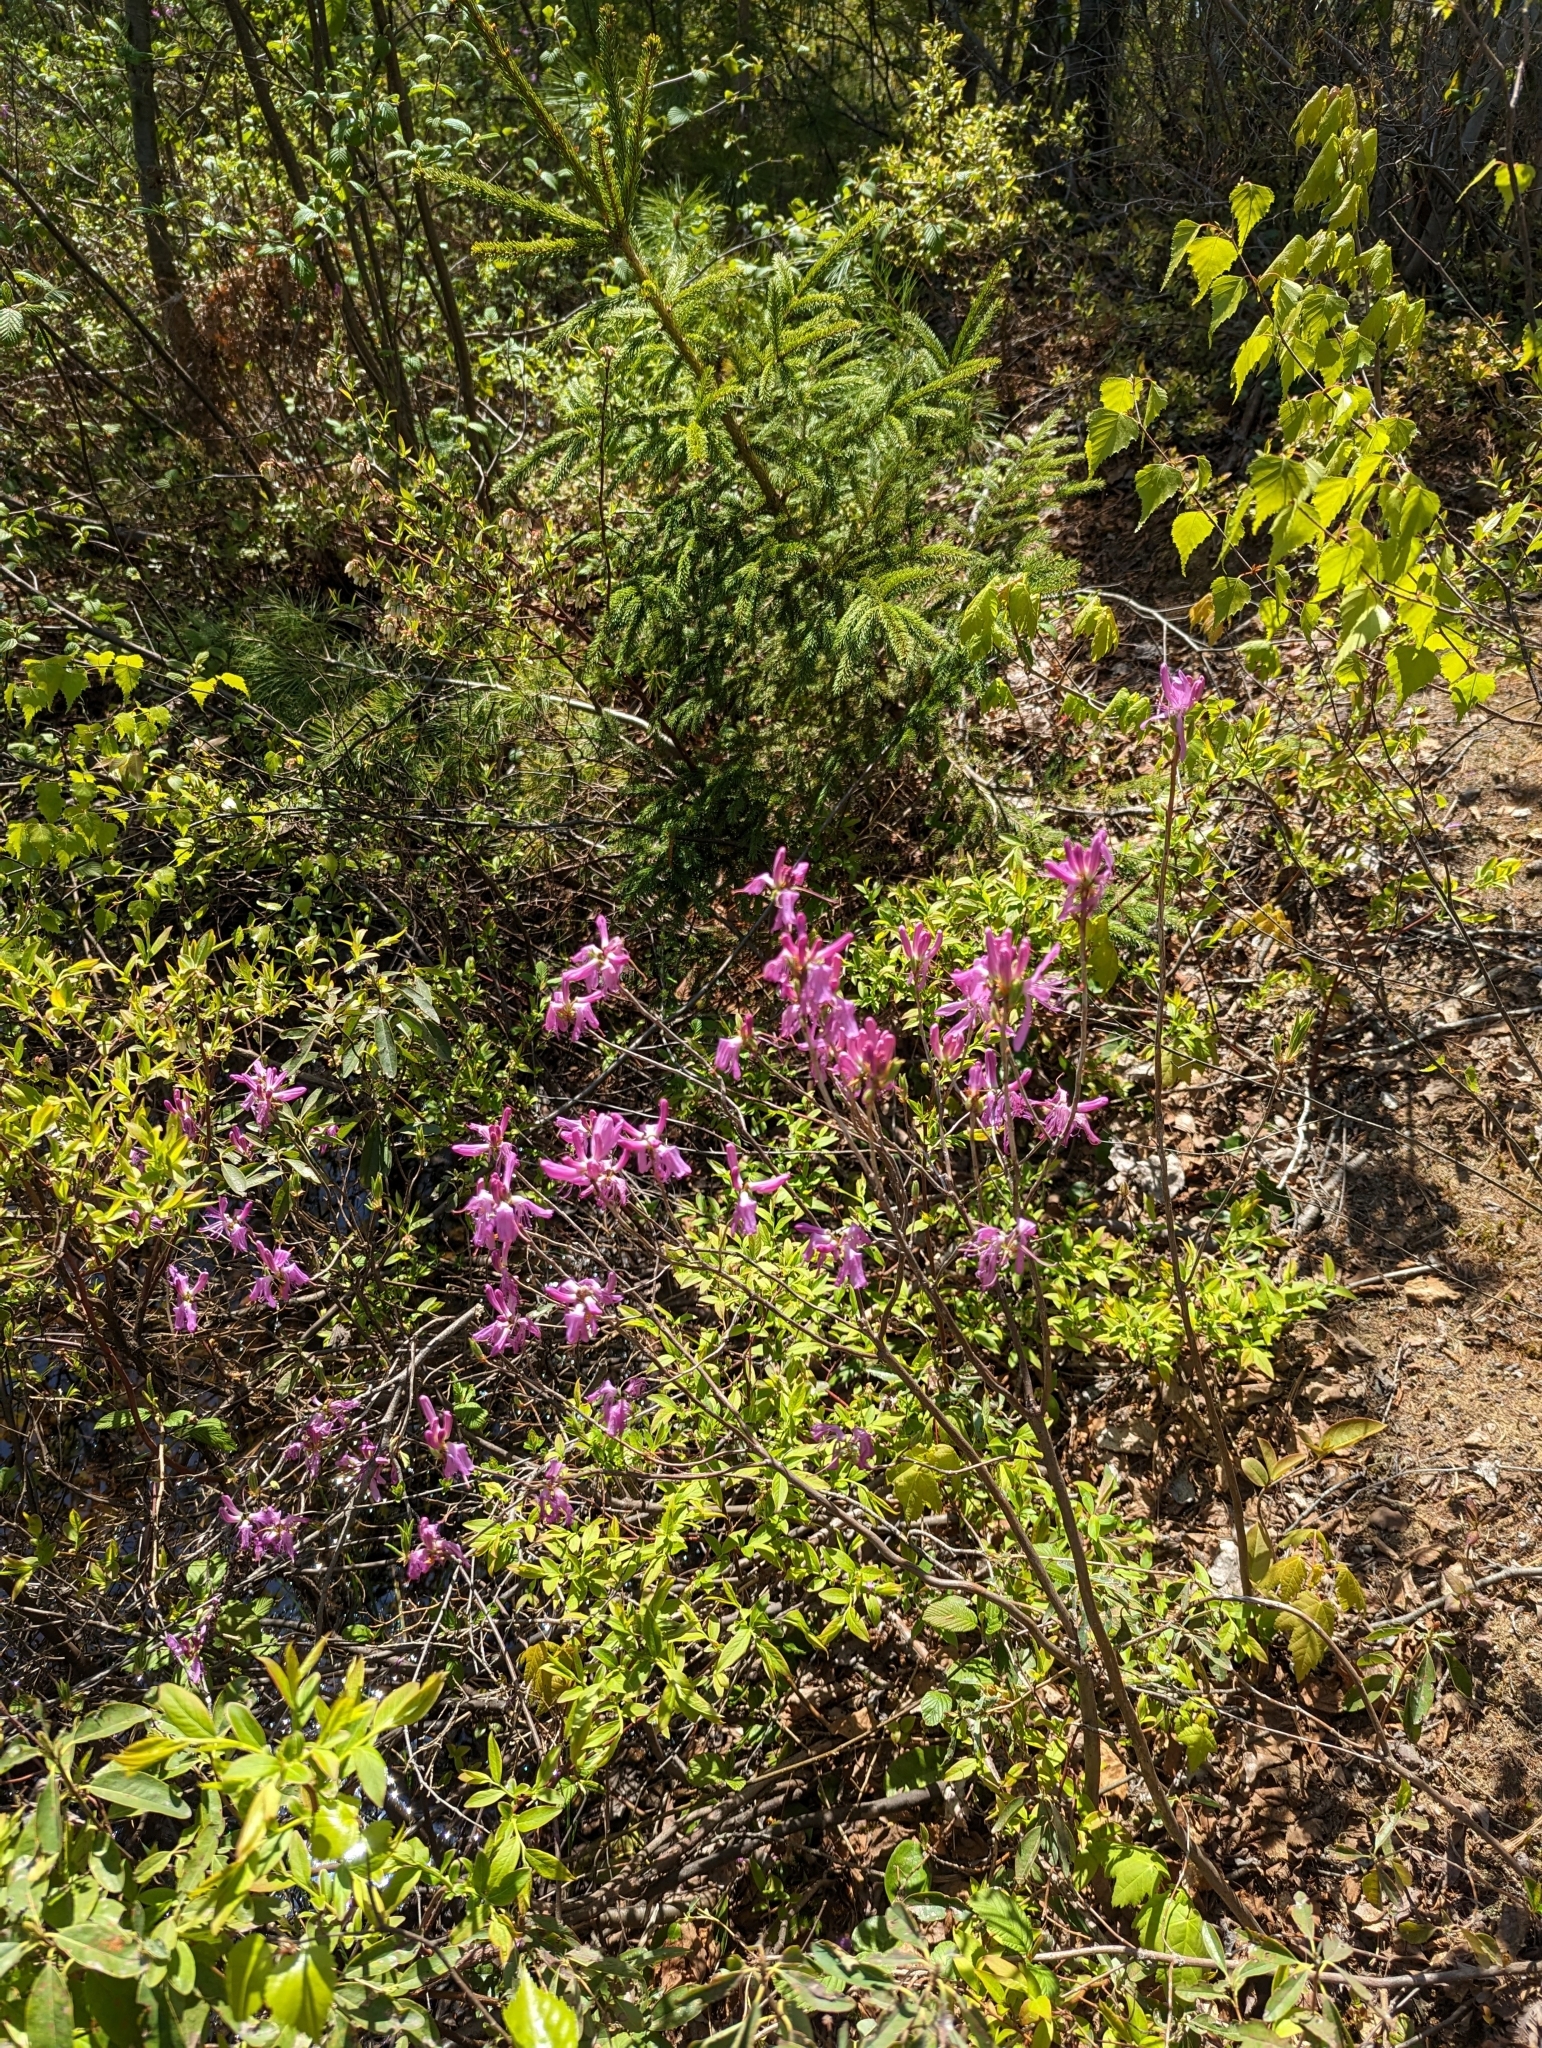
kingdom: Plantae
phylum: Tracheophyta
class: Magnoliopsida
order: Ericales
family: Ericaceae
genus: Rhododendron
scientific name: Rhododendron canadense
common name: Rhodora
